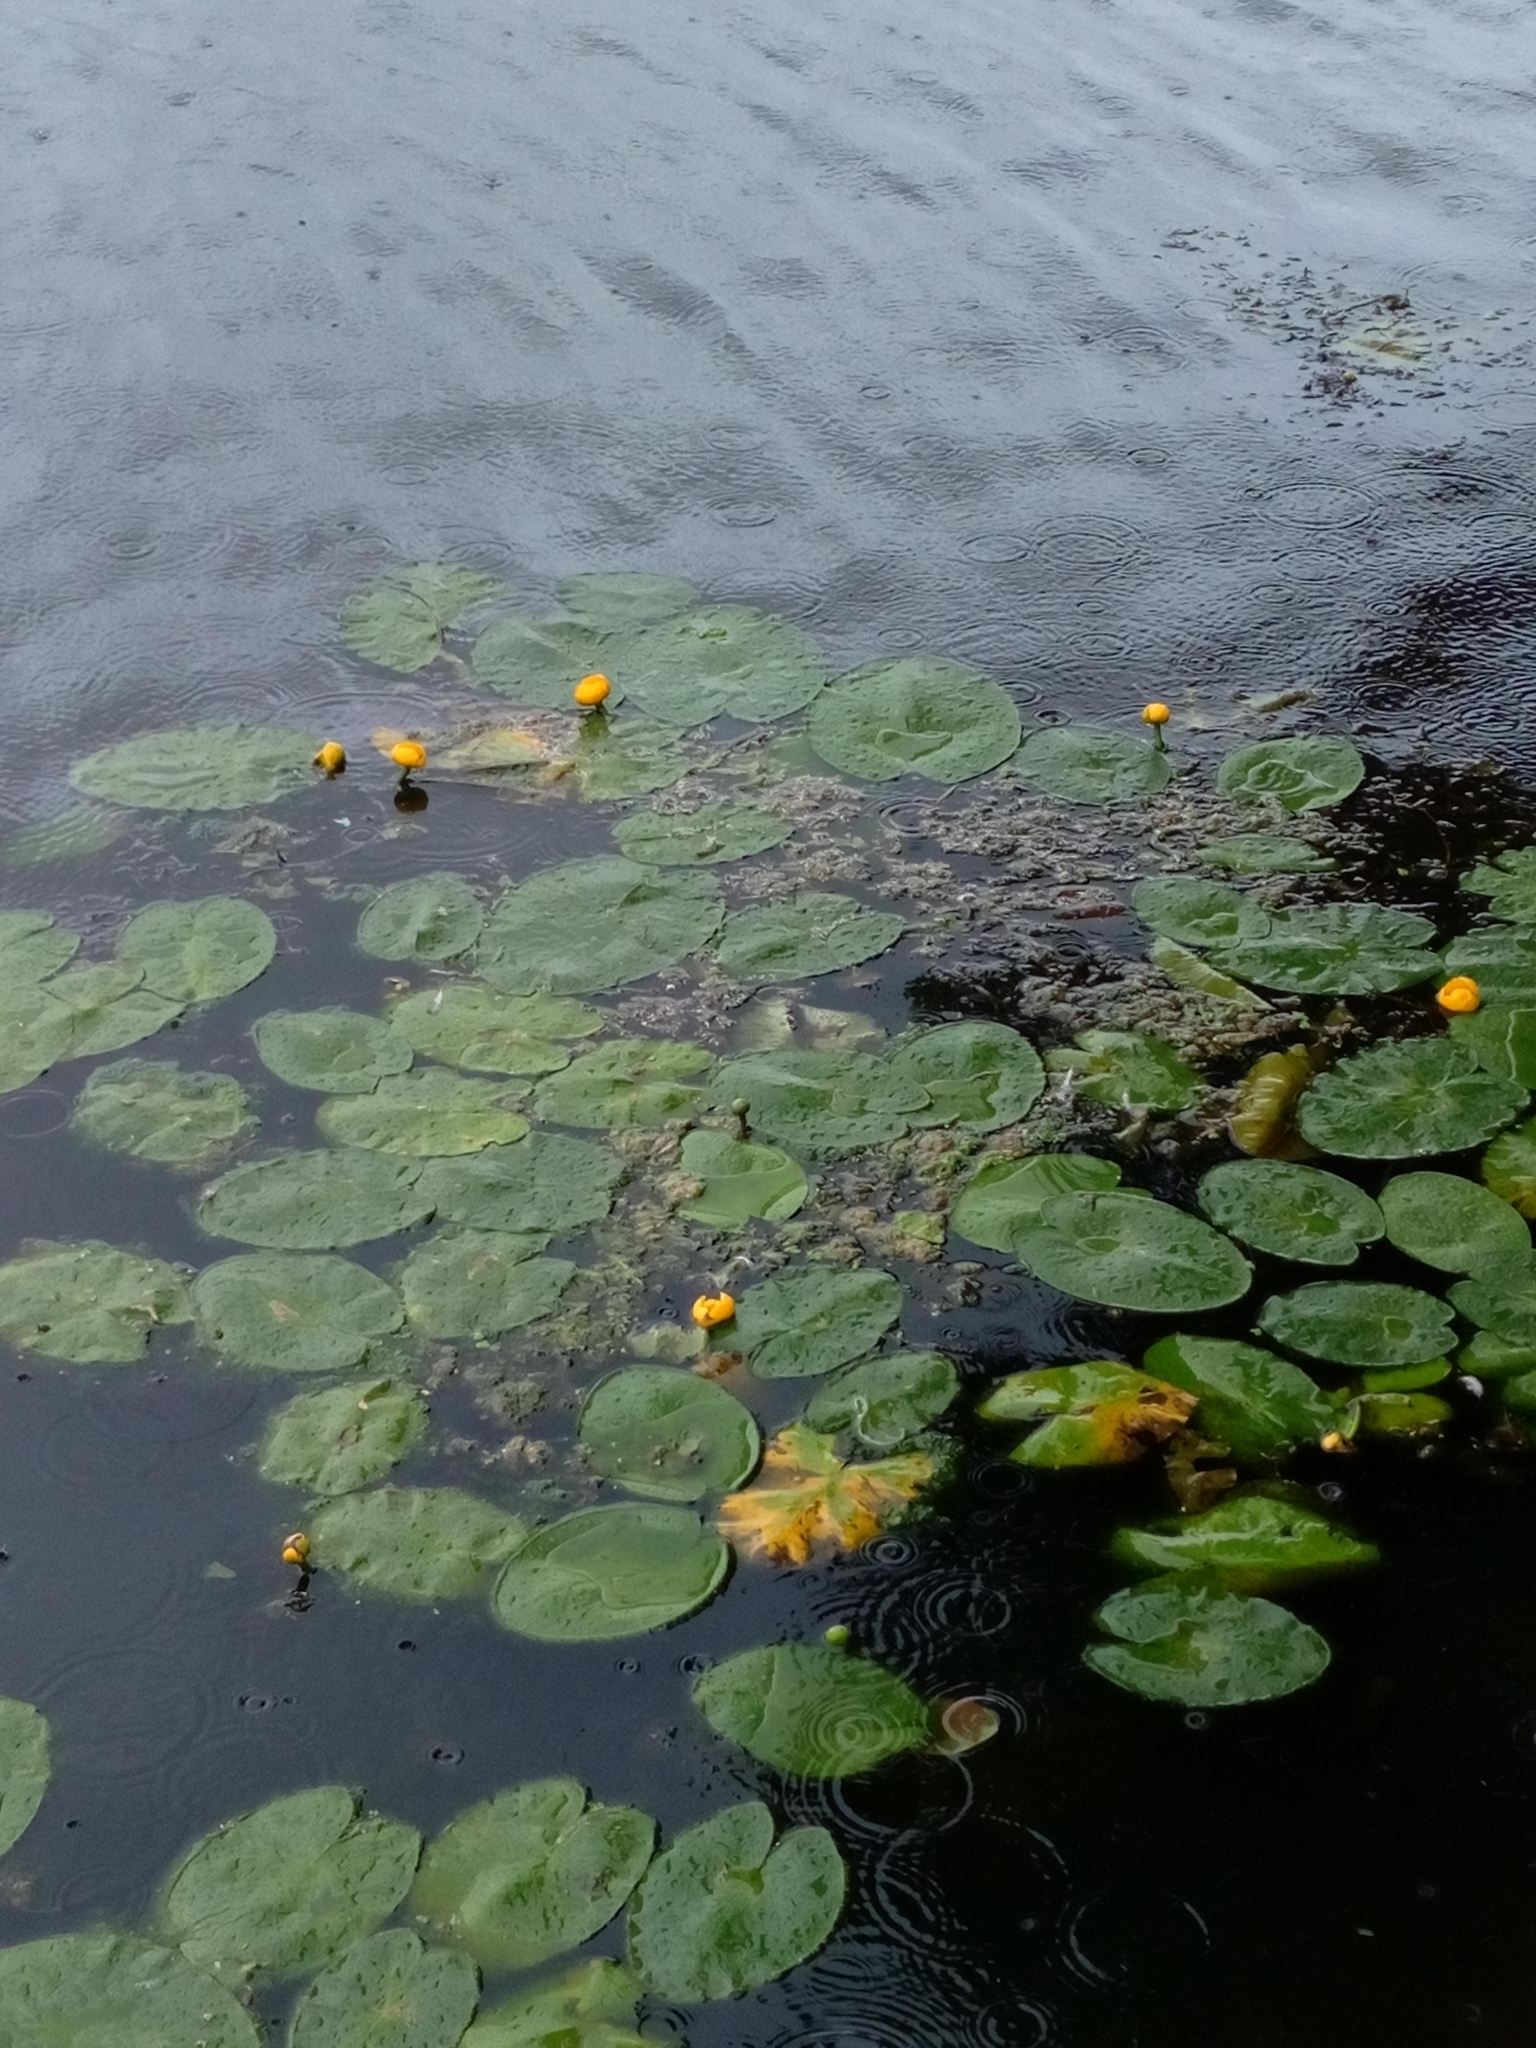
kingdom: Plantae
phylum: Tracheophyta
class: Magnoliopsida
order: Nymphaeales
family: Nymphaeaceae
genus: Nuphar
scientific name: Nuphar lutea
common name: Yellow water-lily
